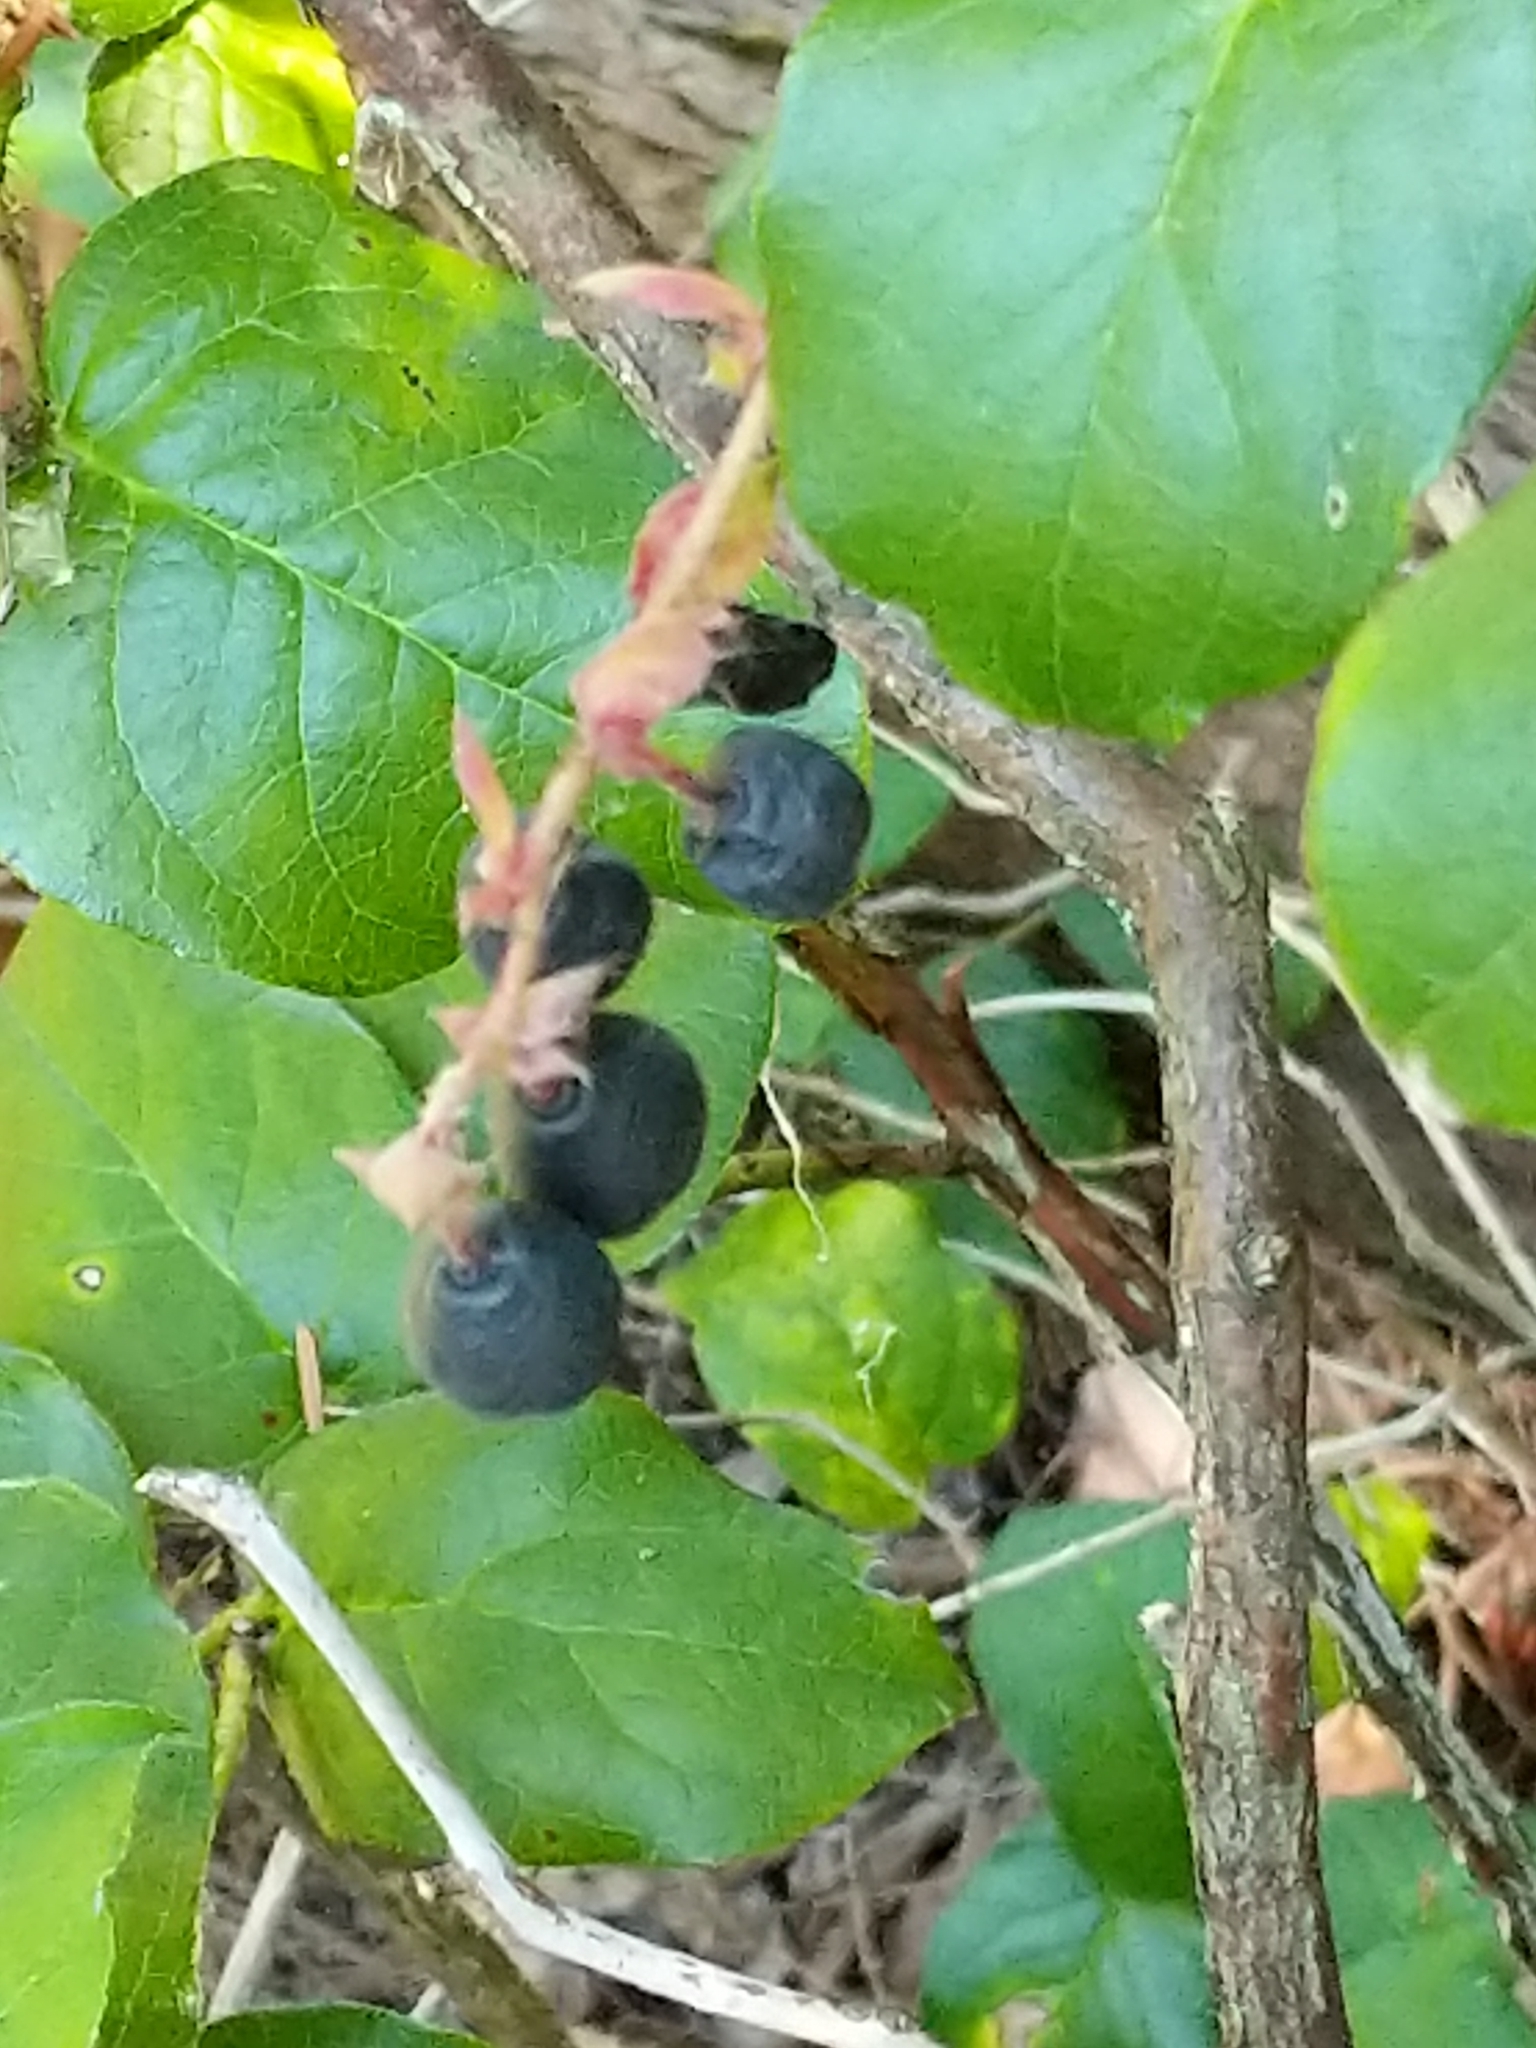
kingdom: Plantae
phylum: Tracheophyta
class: Magnoliopsida
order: Ericales
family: Ericaceae
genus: Gaultheria
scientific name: Gaultheria shallon
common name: Shallon
